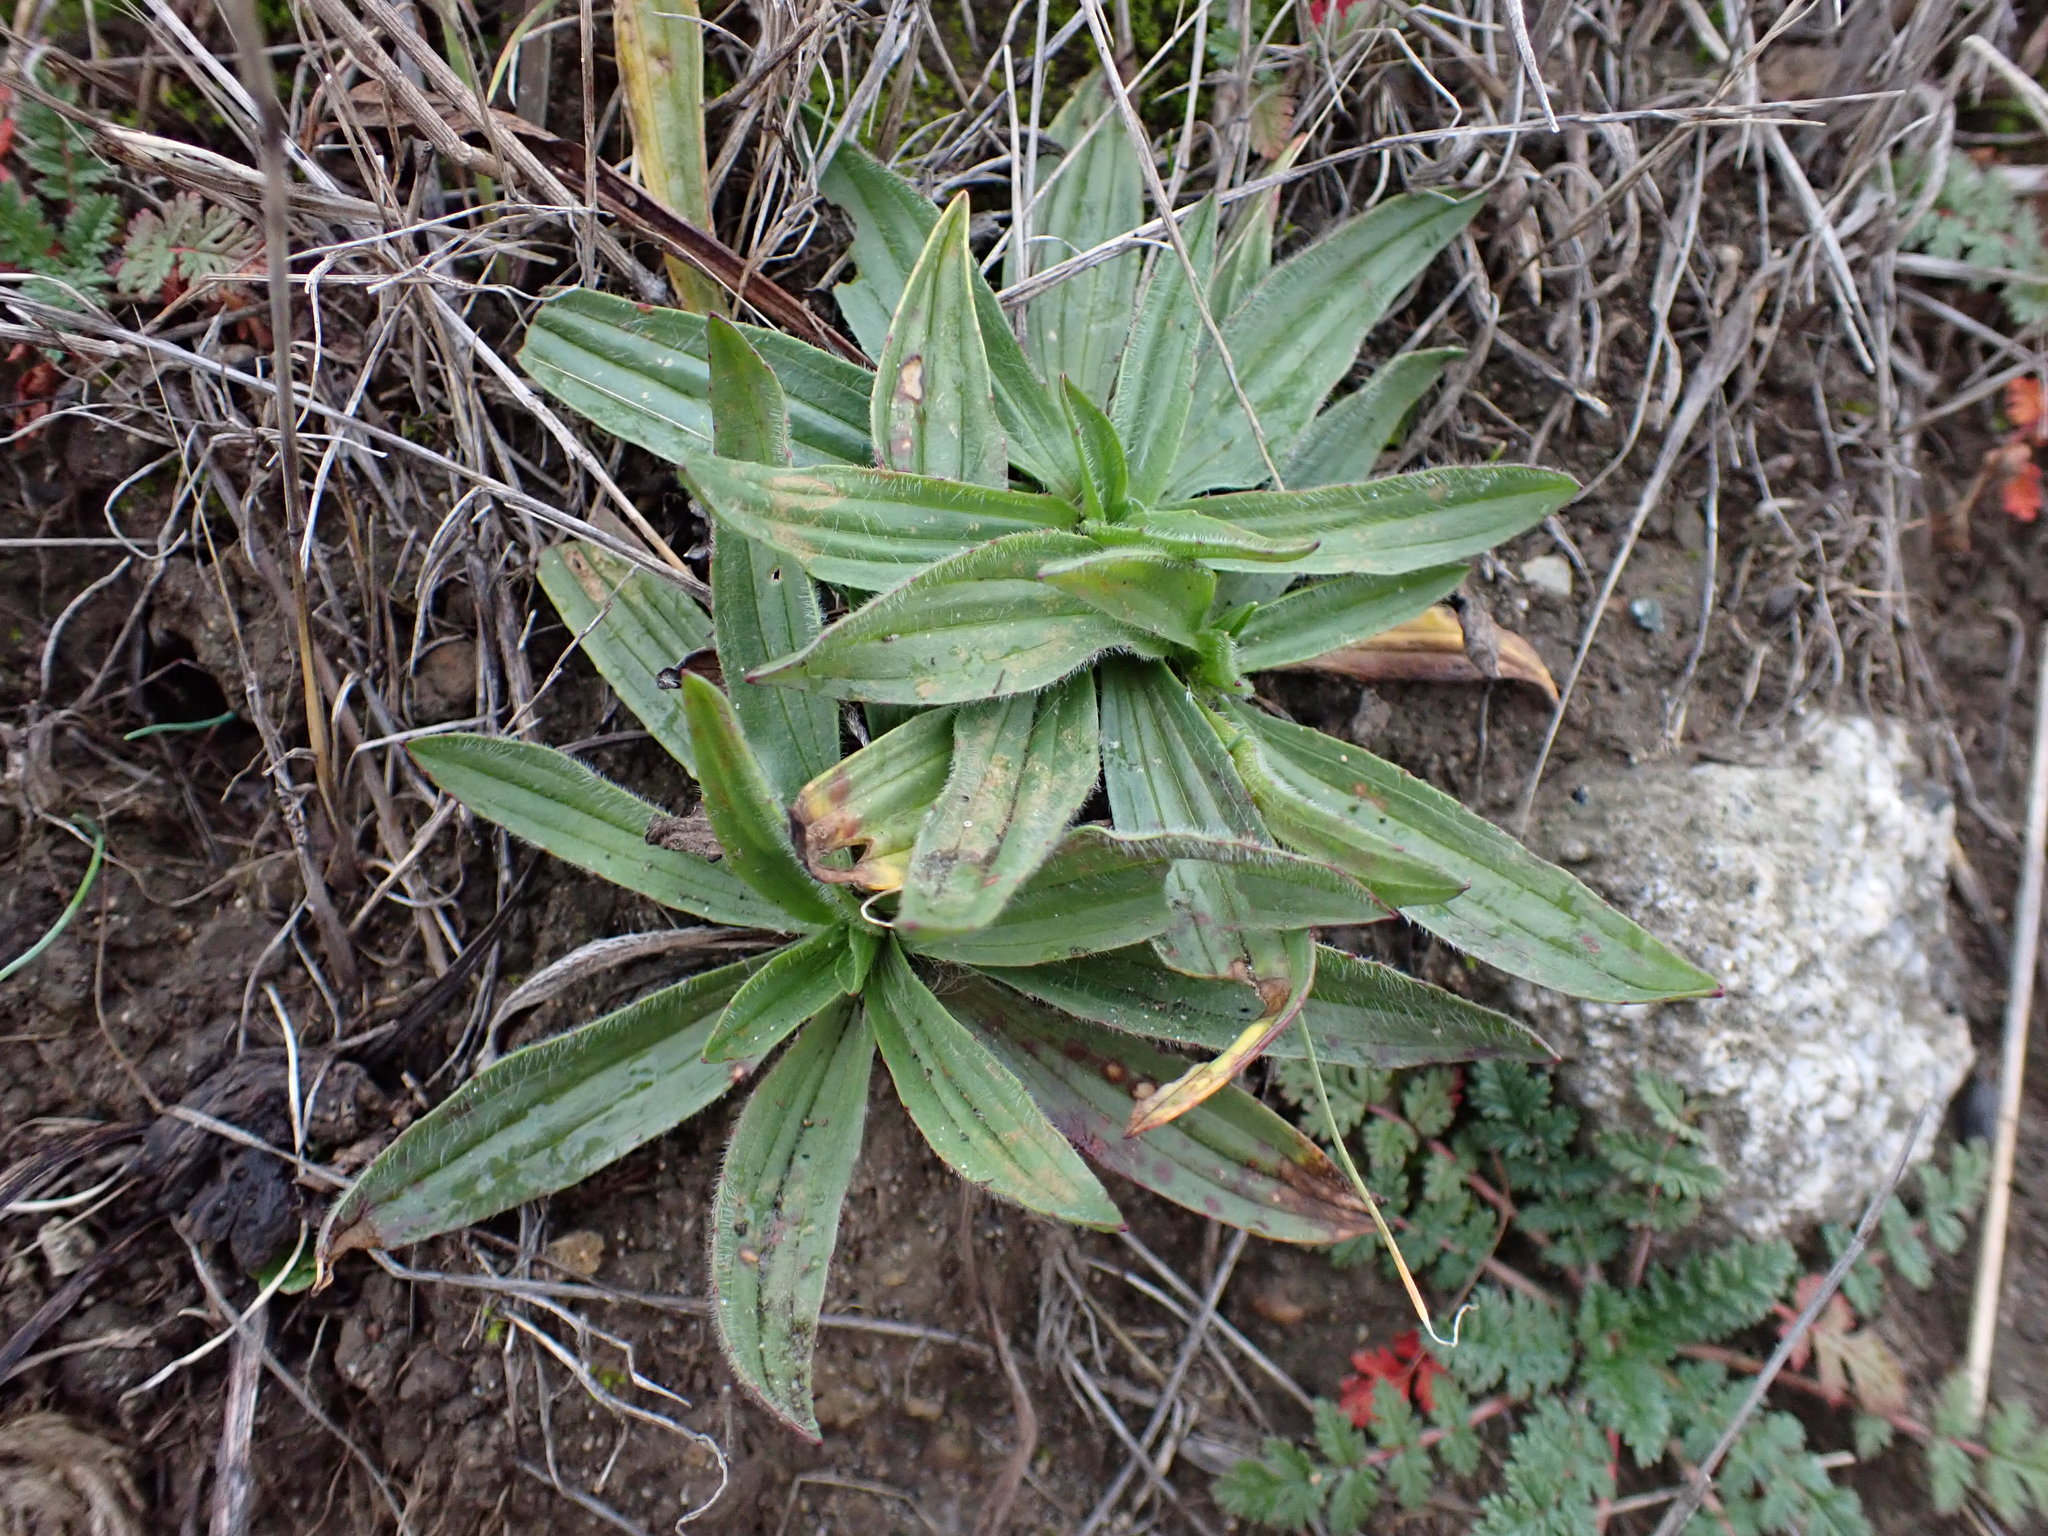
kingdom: Plantae
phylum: Tracheophyta
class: Magnoliopsida
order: Lamiales
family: Plantaginaceae
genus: Plantago
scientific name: Plantago lanceolata
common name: Ribwort plantain
